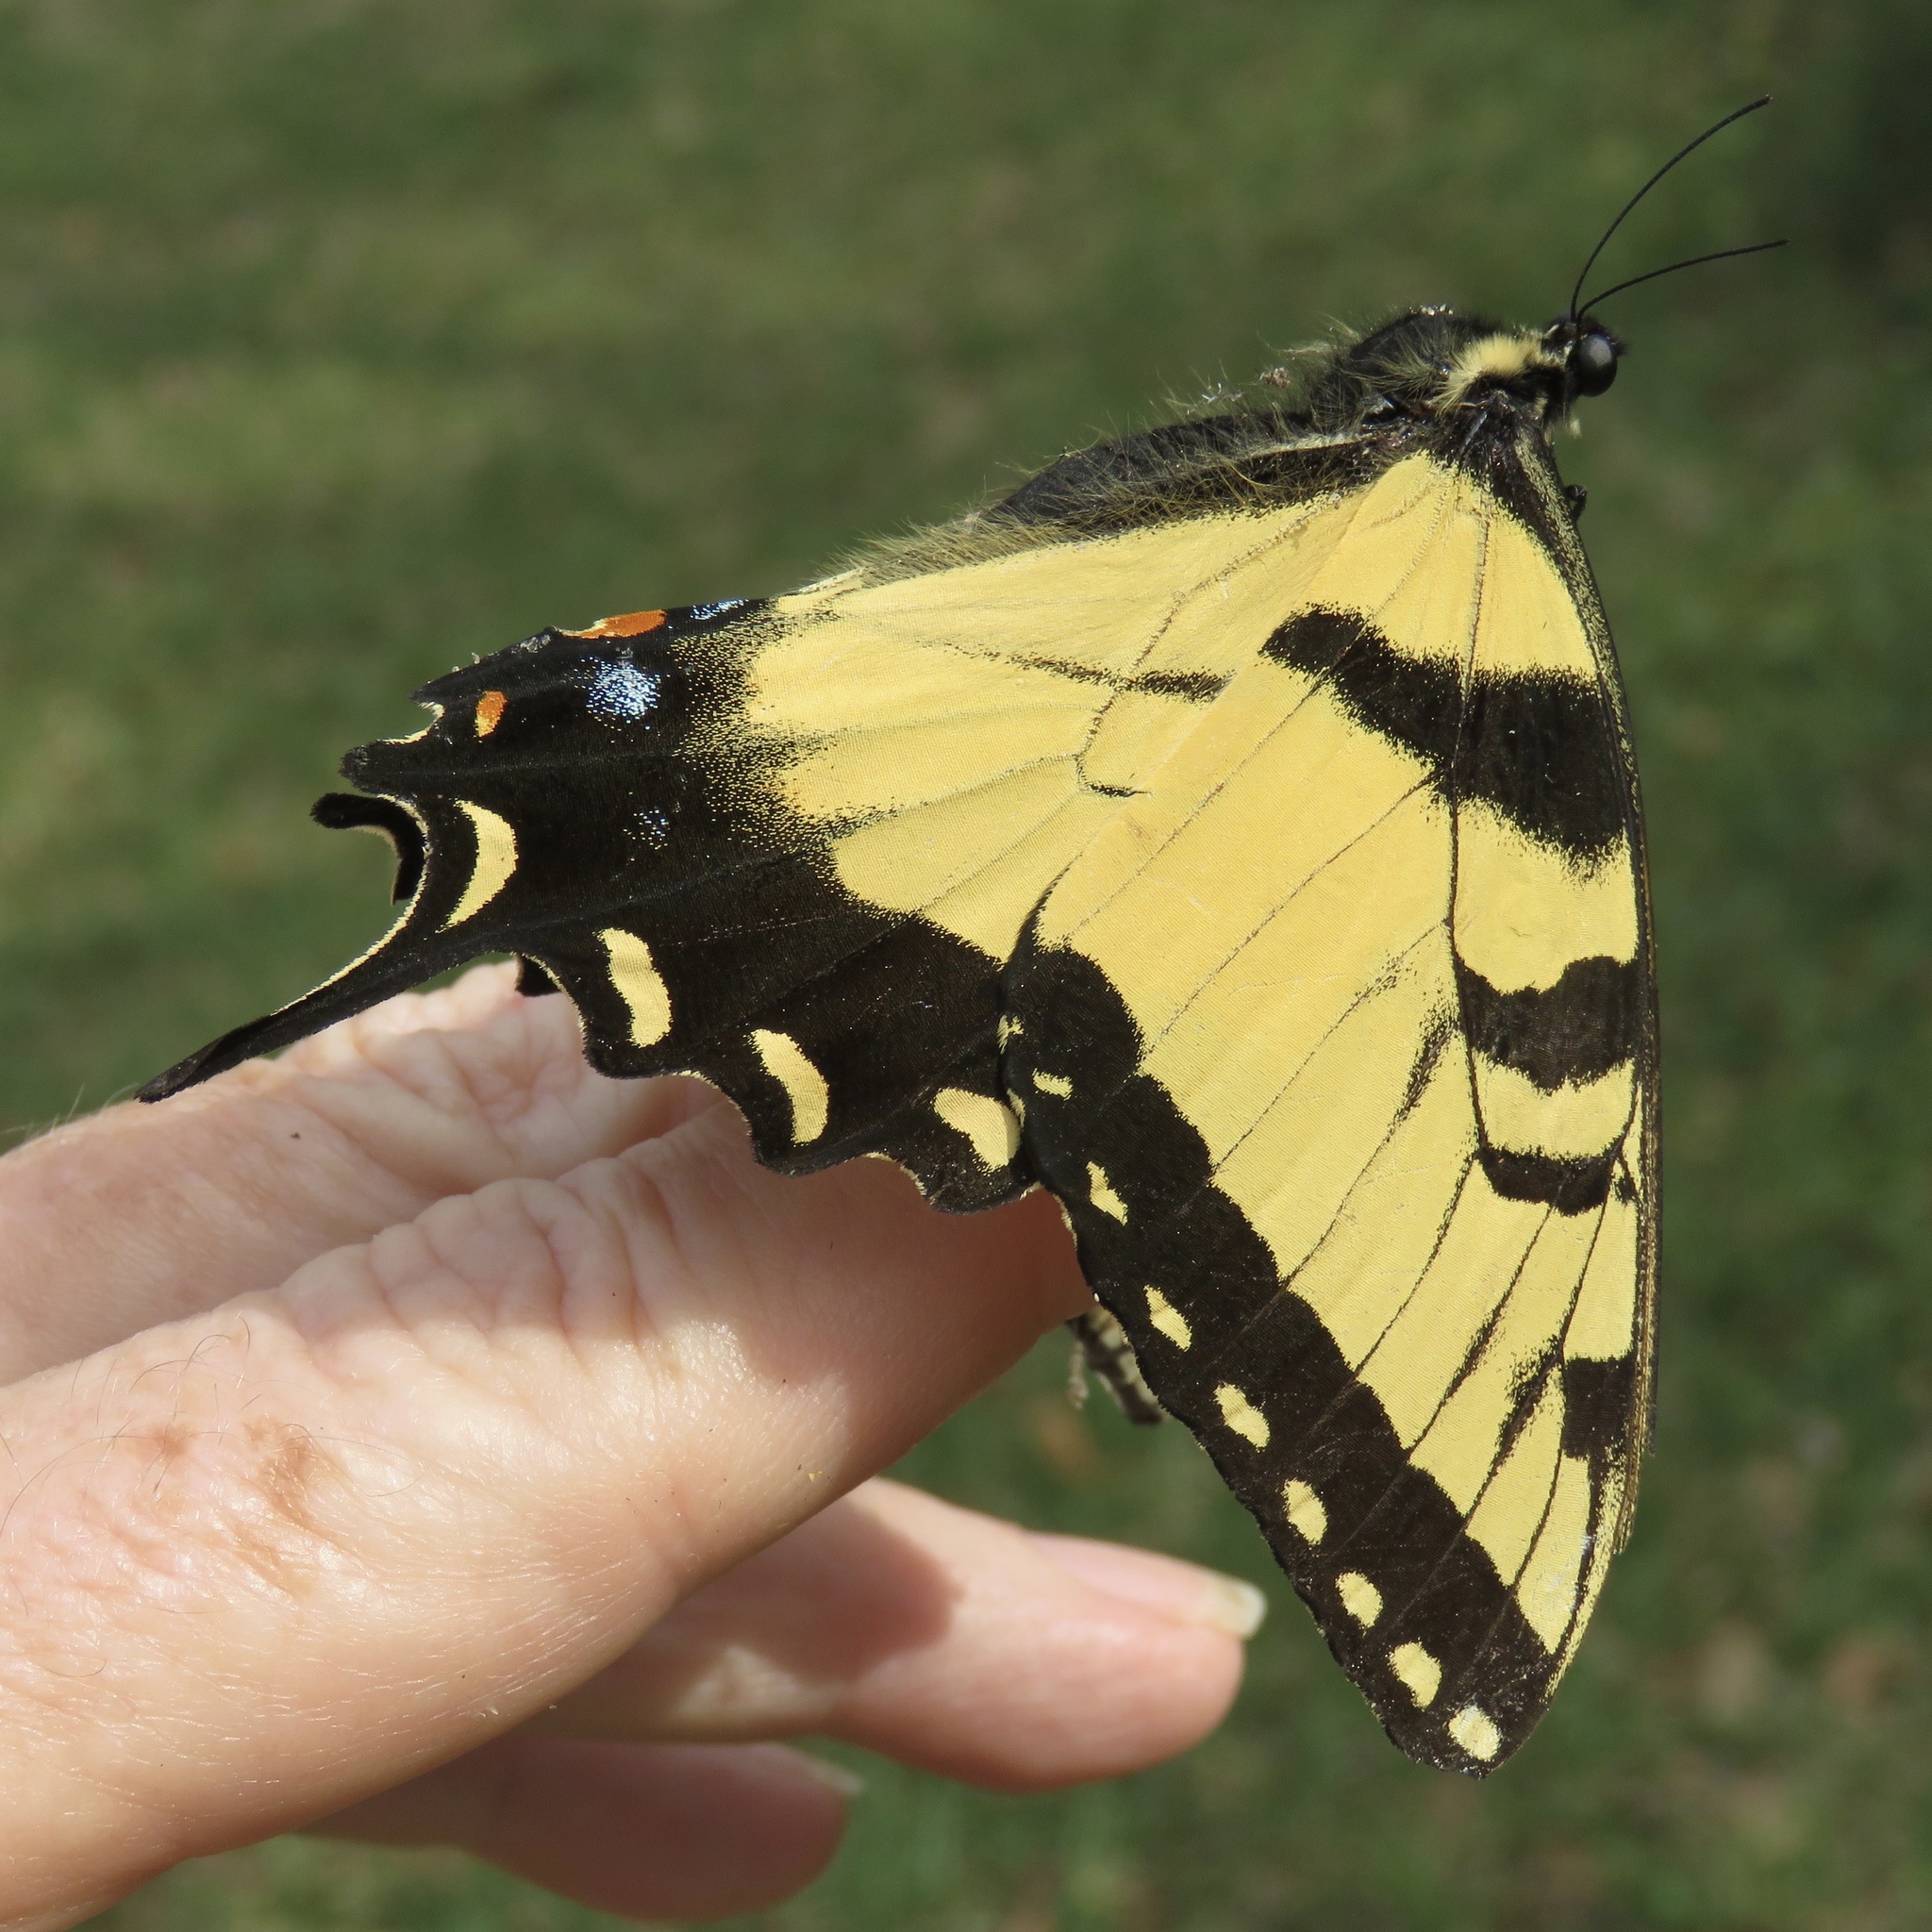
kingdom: Animalia
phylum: Arthropoda
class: Insecta
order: Lepidoptera
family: Papilionidae
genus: Papilio
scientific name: Papilio glaucus
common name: Tiger swallowtail
